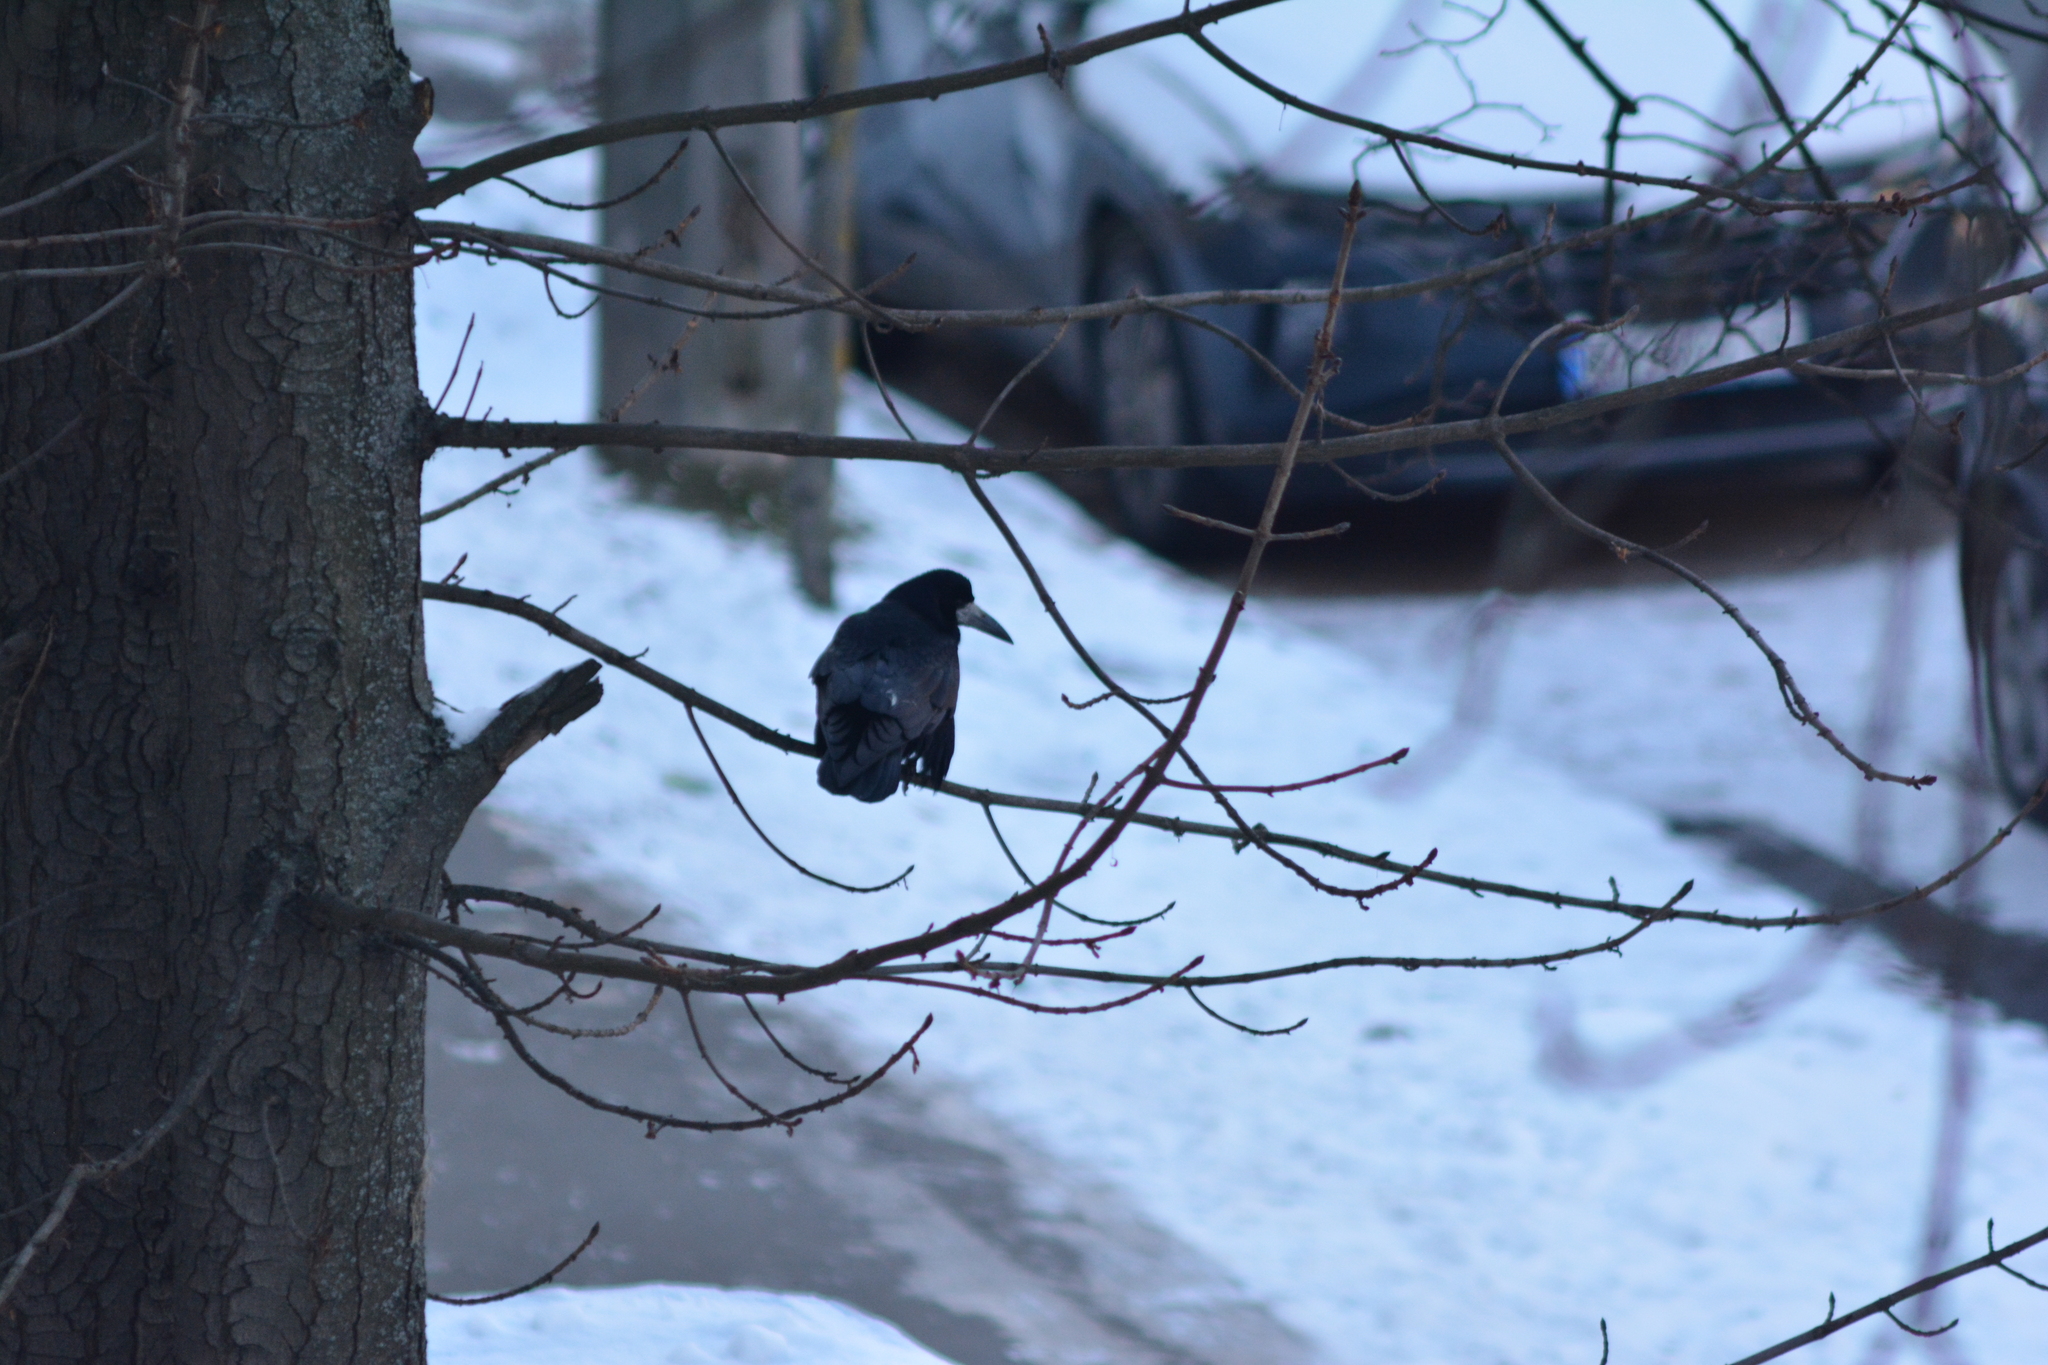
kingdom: Animalia
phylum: Chordata
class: Aves
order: Passeriformes
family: Corvidae
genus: Corvus
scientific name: Corvus frugilegus
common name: Rook
